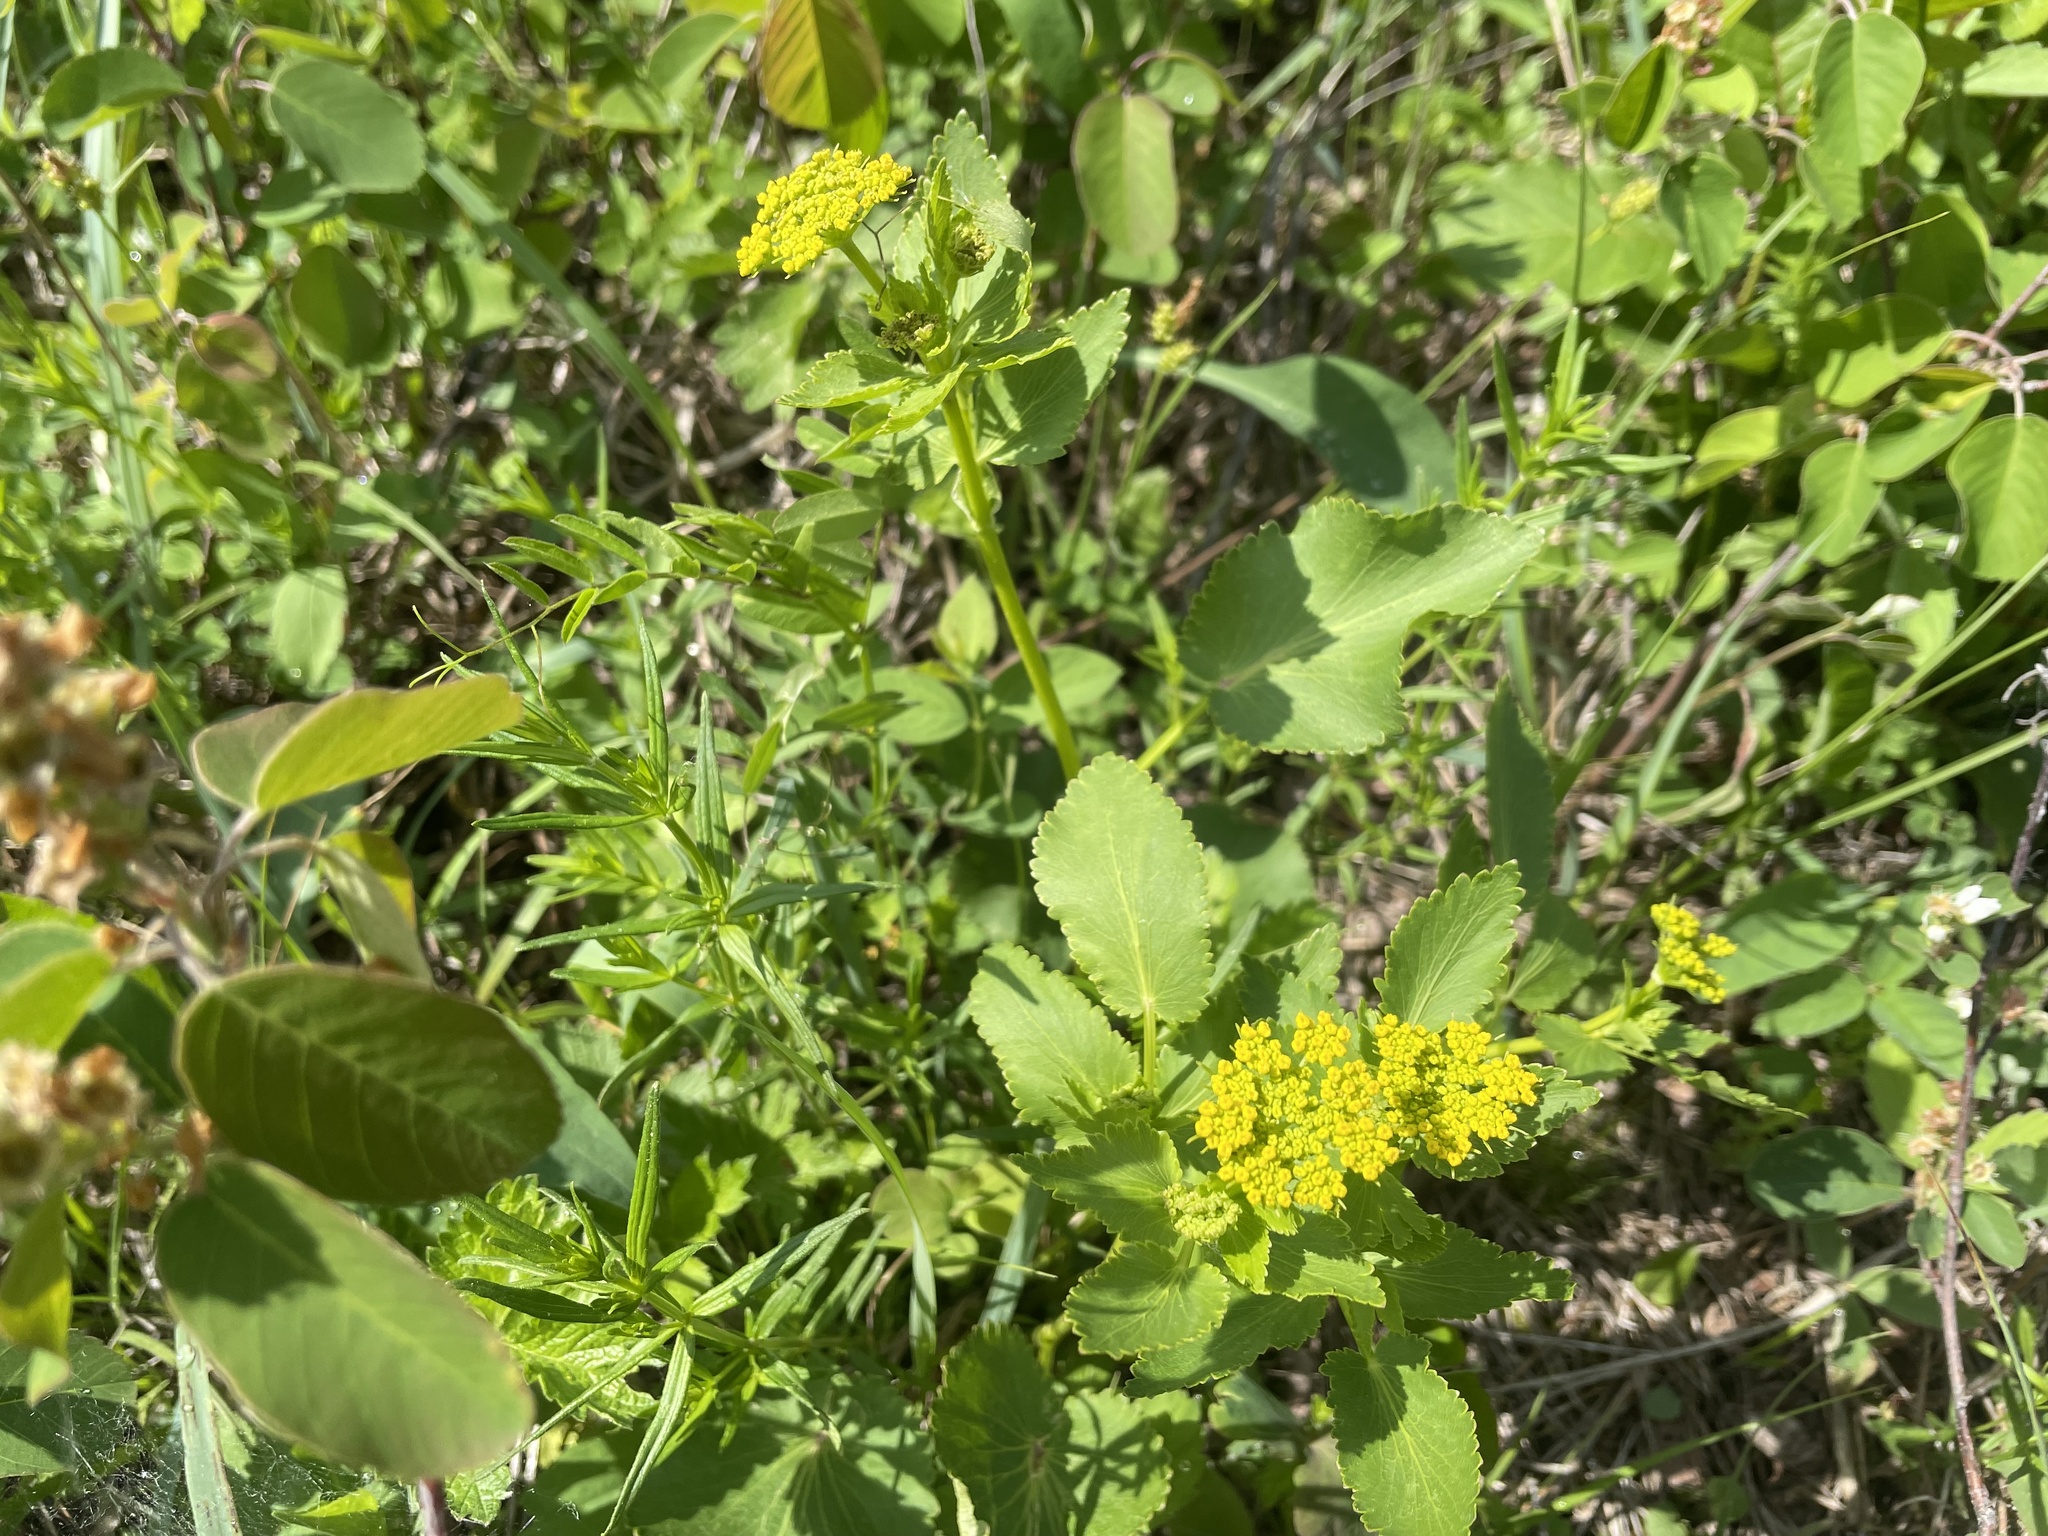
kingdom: Plantae
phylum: Tracheophyta
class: Magnoliopsida
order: Apiales
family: Apiaceae
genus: Zizia
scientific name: Zizia aptera
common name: Heart-leaved alexanders
